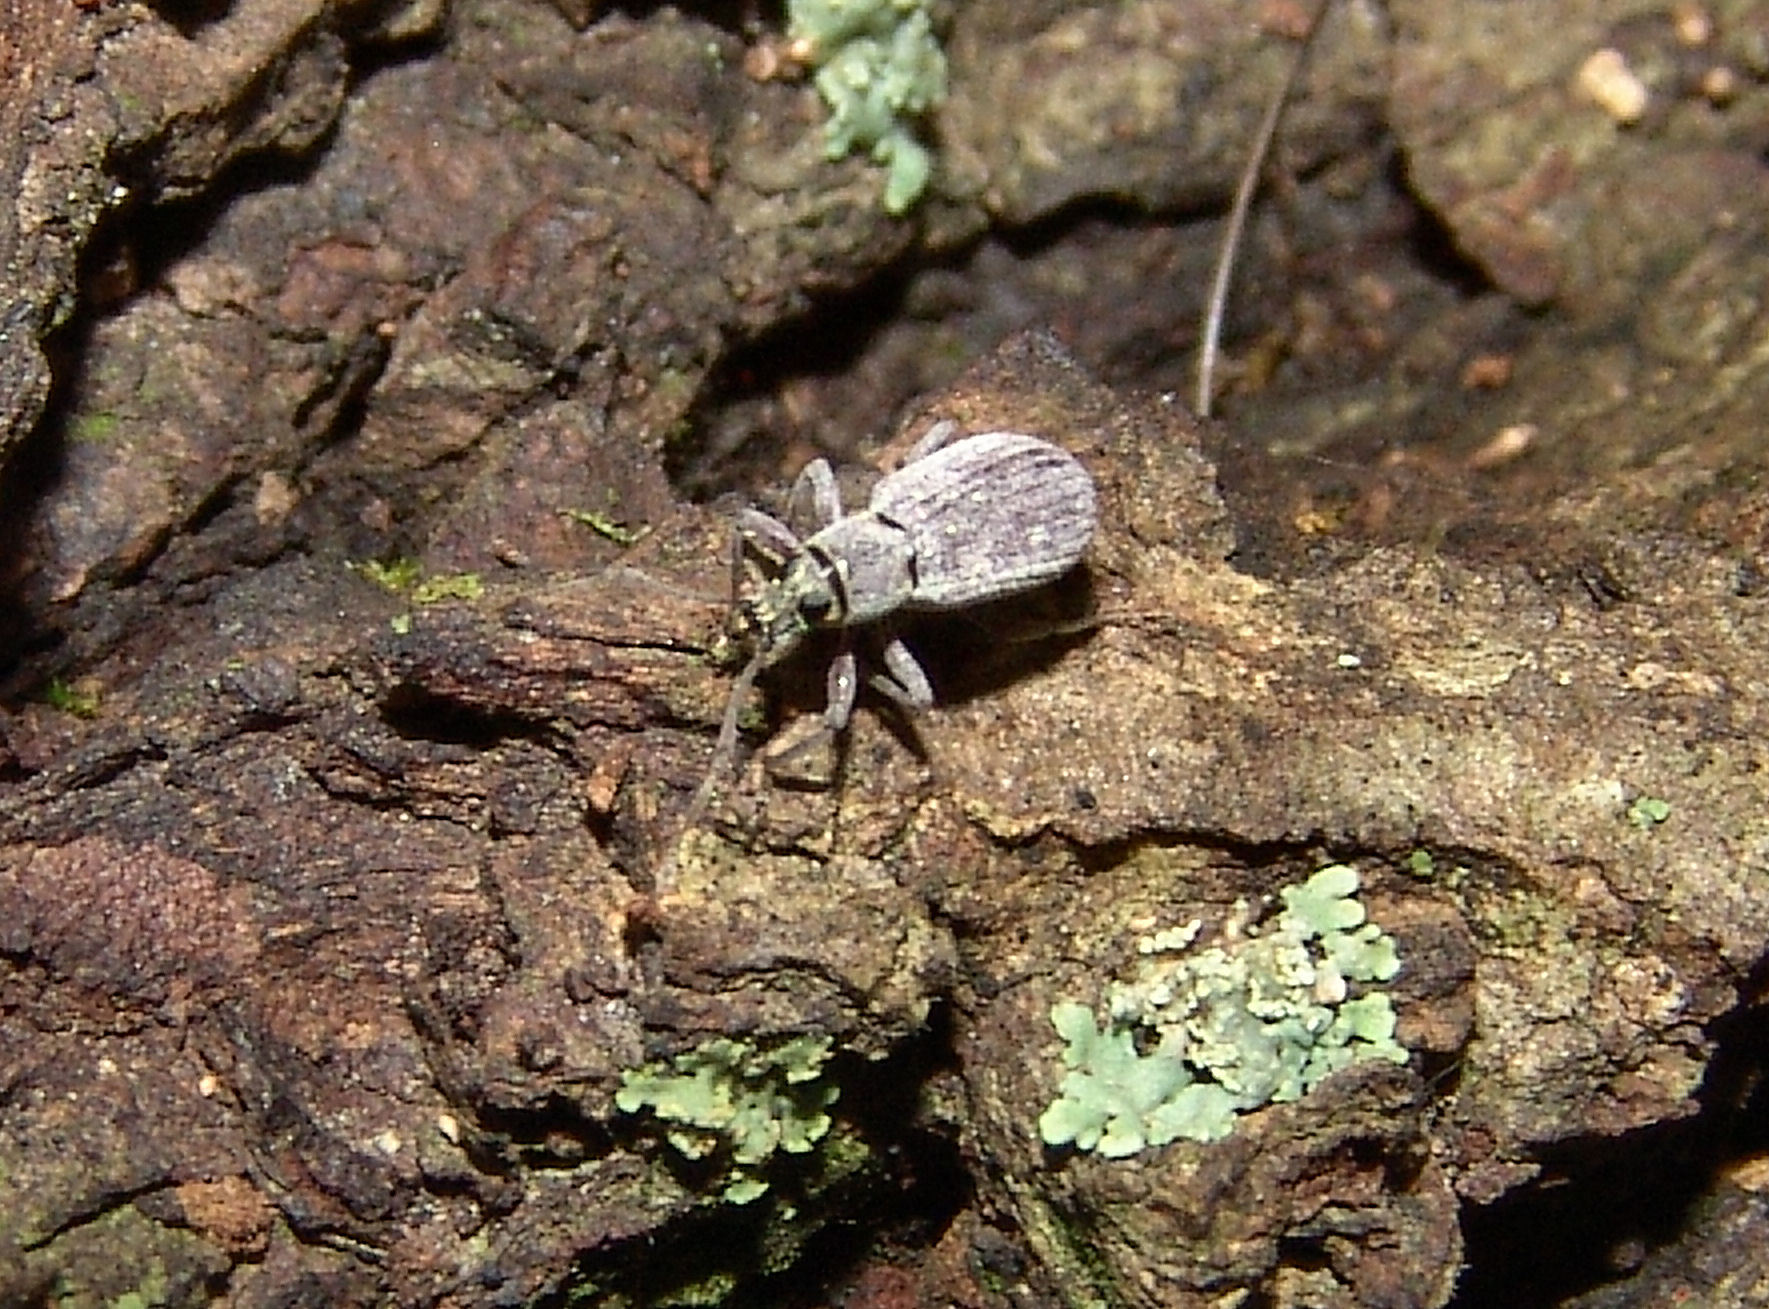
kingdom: Animalia
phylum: Arthropoda
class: Insecta
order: Coleoptera
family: Curculionidae
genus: Cyrtepistomus
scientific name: Cyrtepistomus castaneus
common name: Weevil
